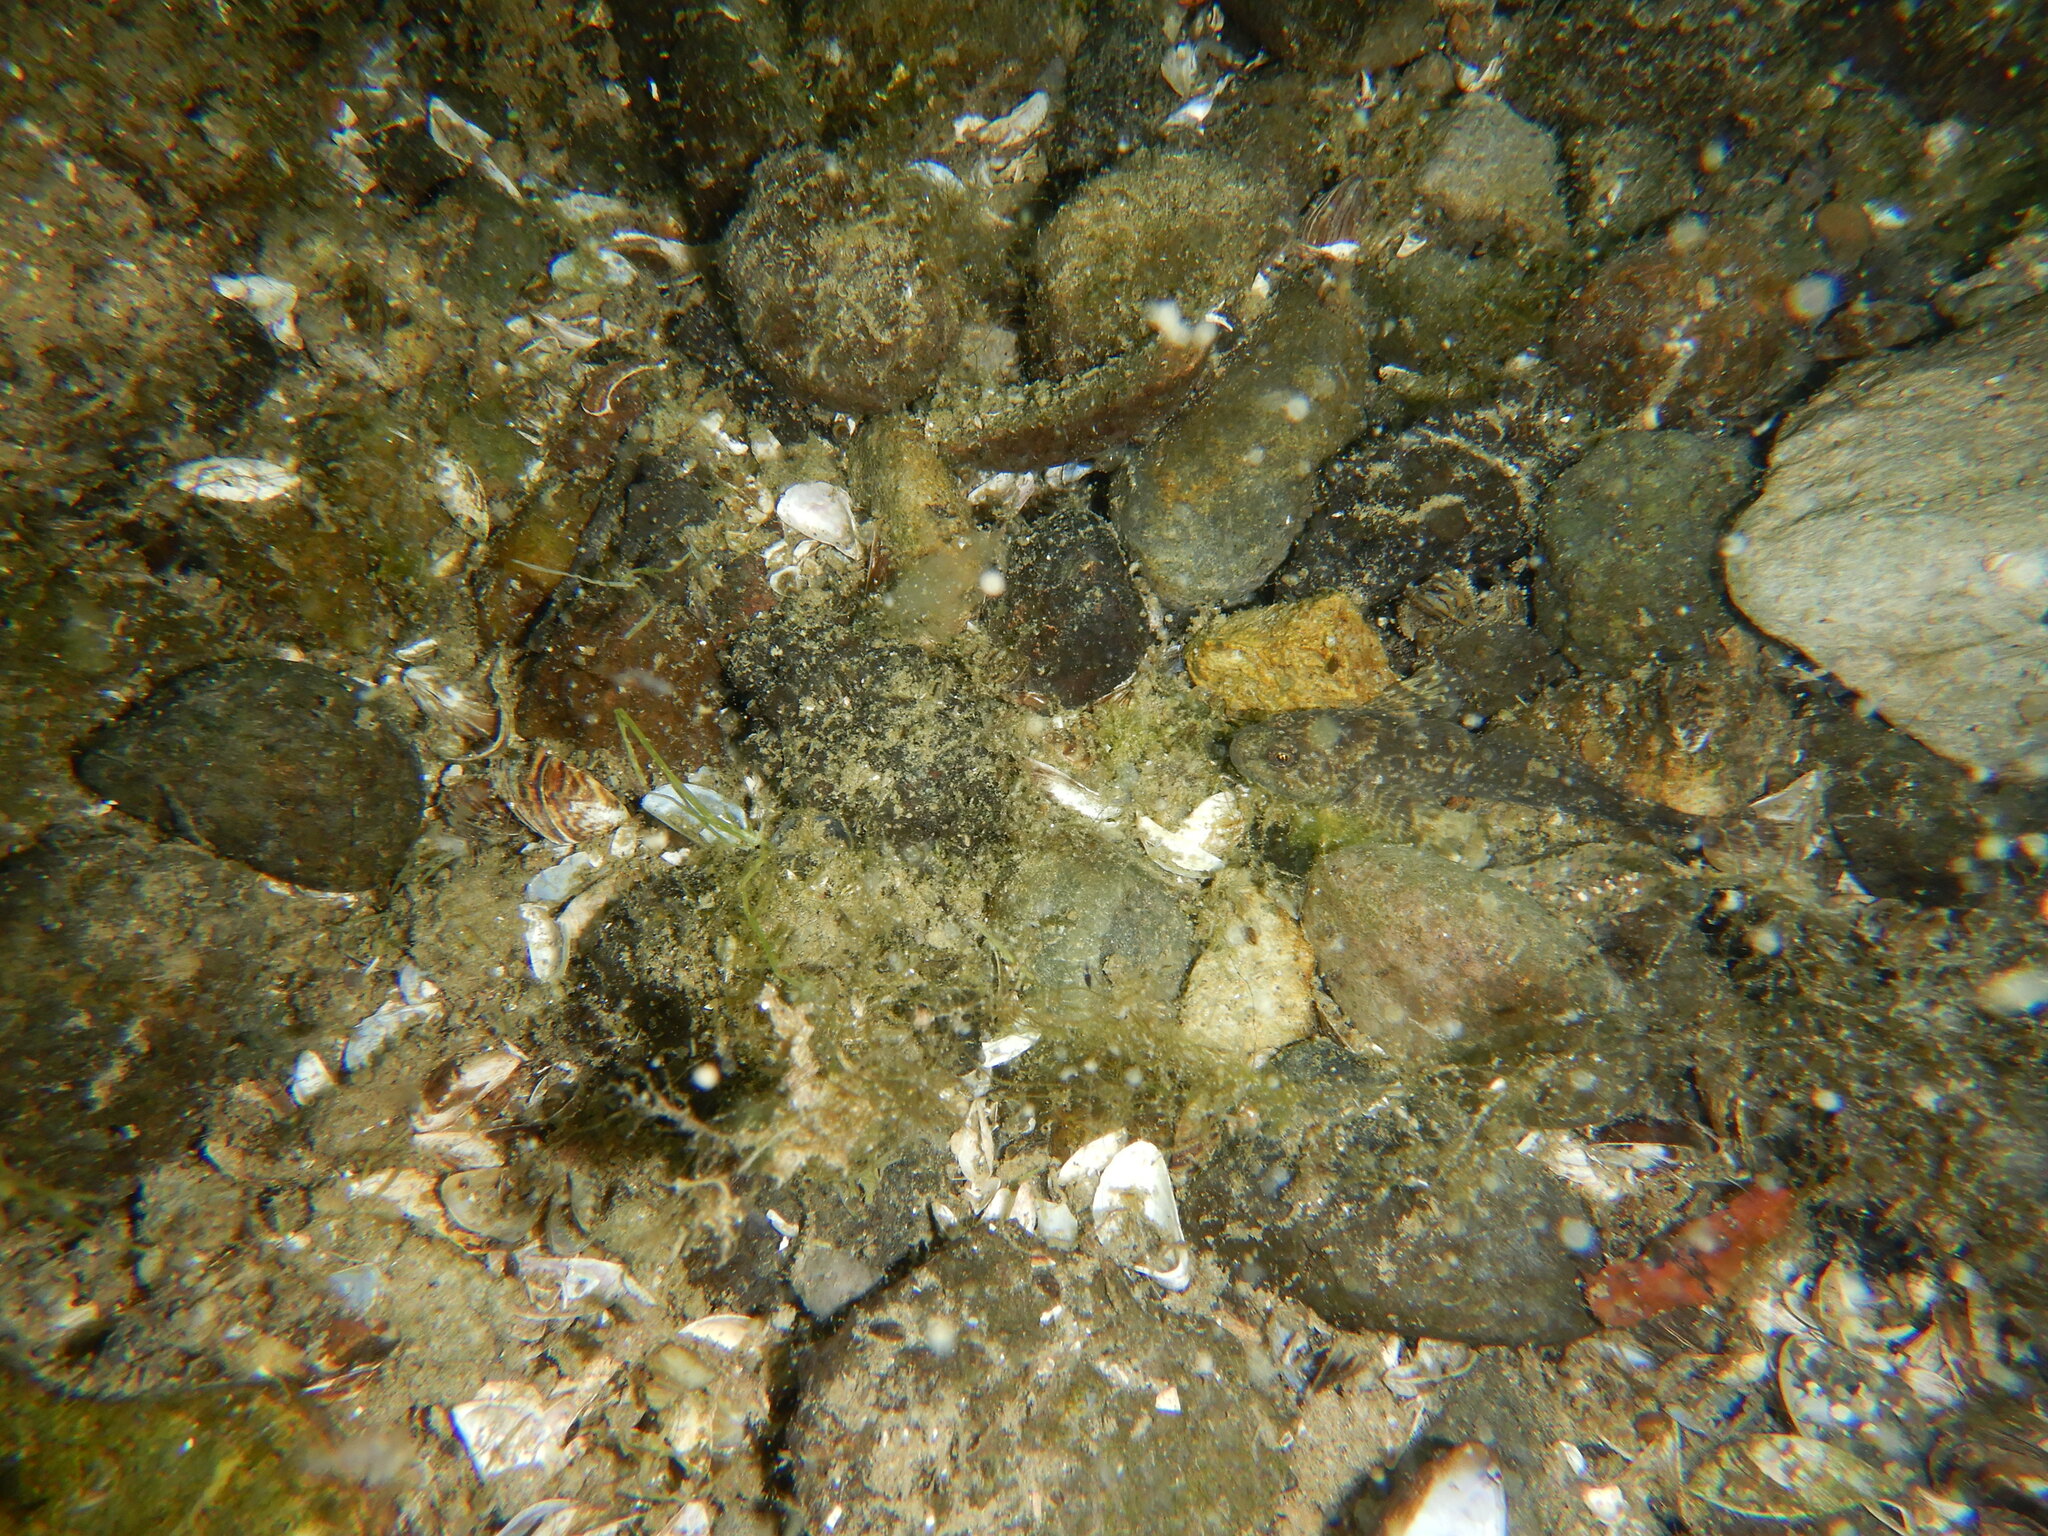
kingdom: Animalia
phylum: Chordata
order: Scorpaeniformes
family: Cottidae
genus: Cottus
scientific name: Cottus gobio
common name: Bullhead
